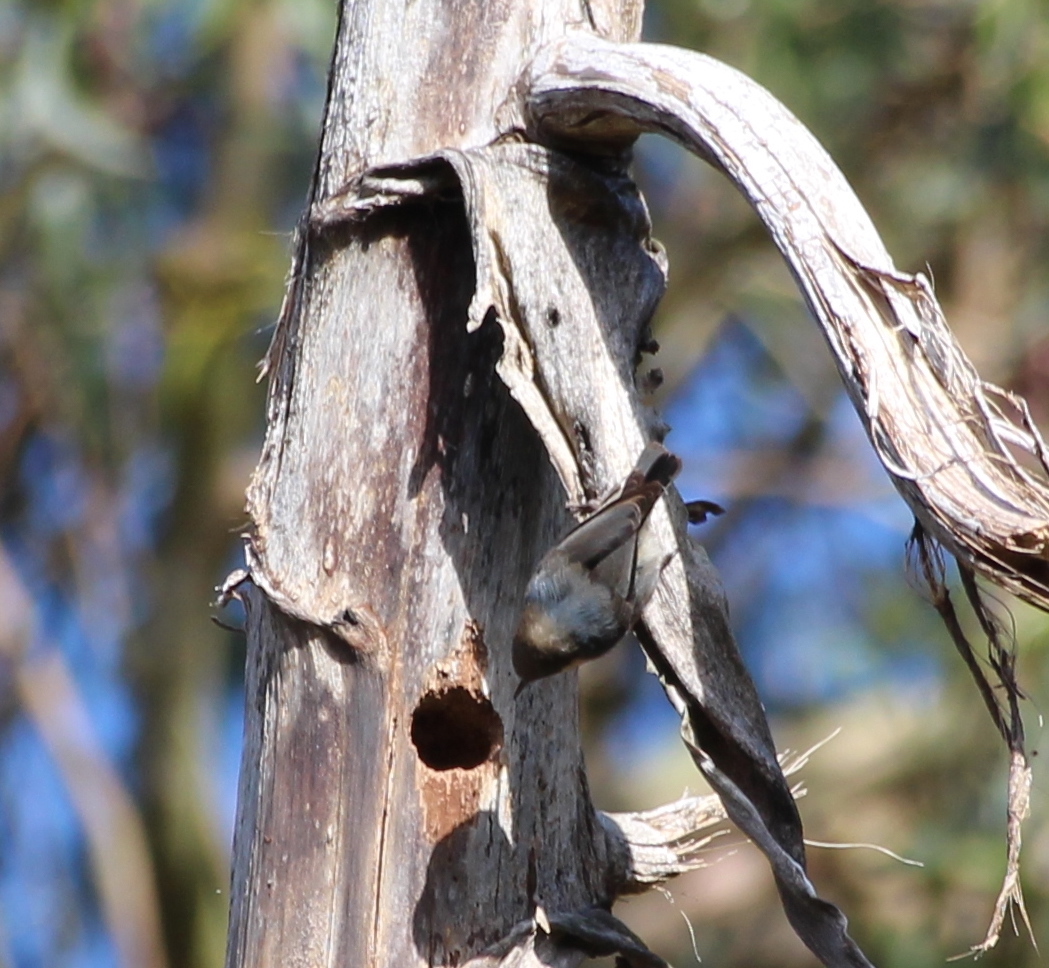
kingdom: Animalia
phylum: Chordata
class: Aves
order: Passeriformes
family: Sittidae
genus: Sitta
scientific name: Sitta pygmaea
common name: Pygmy nuthatch
